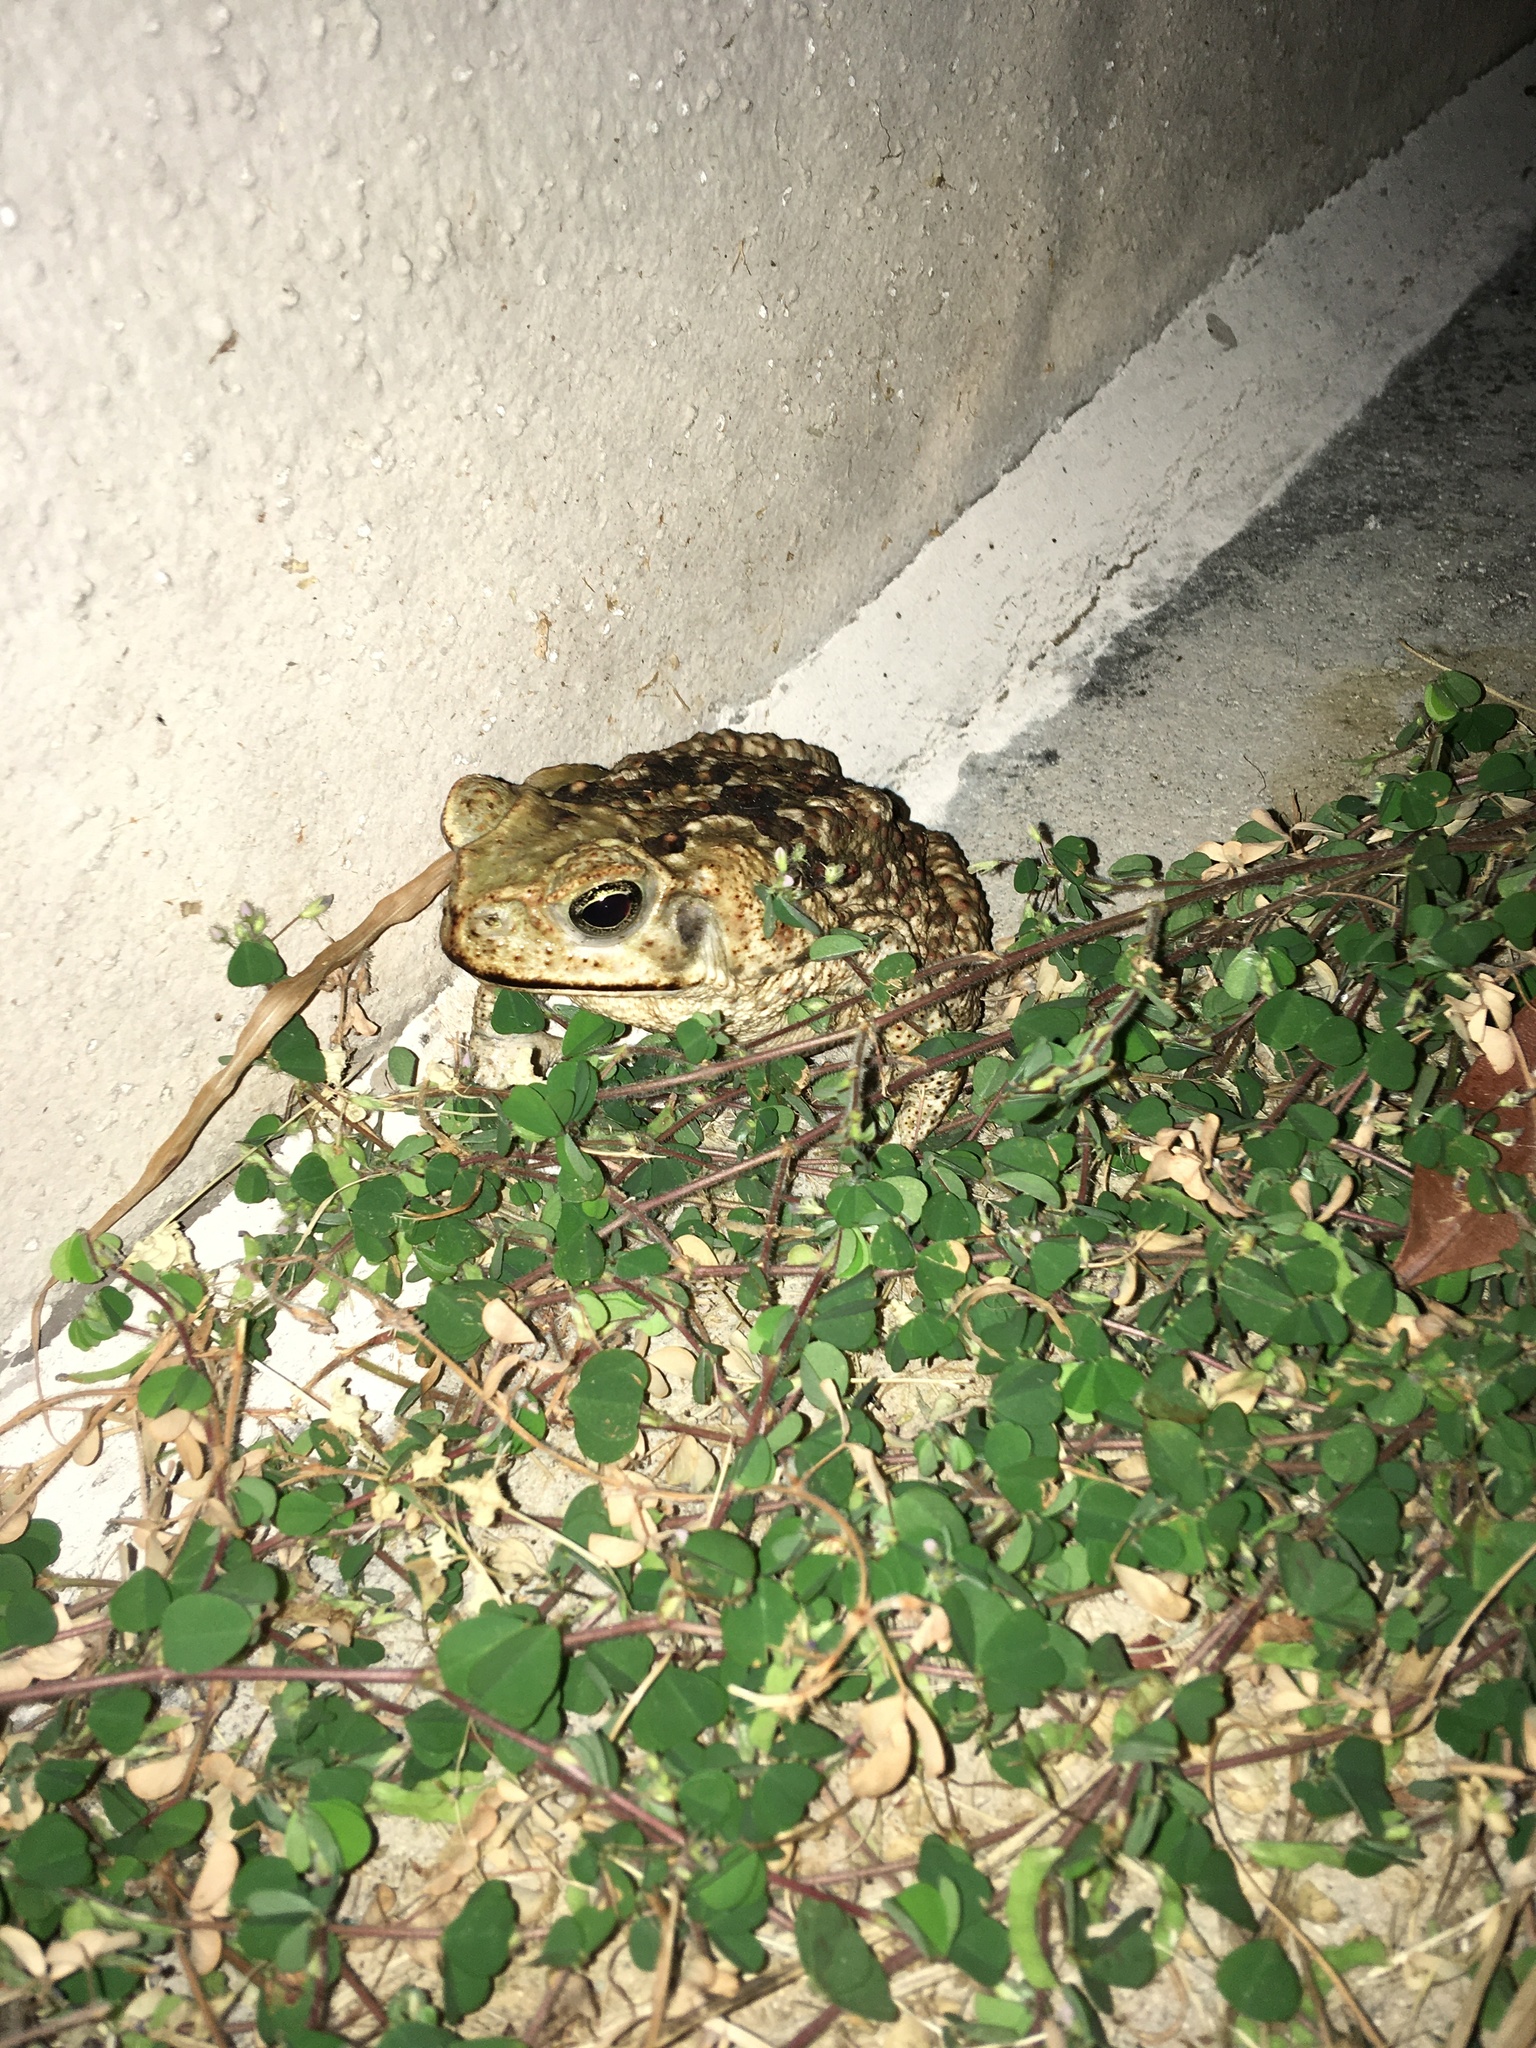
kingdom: Animalia
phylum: Chordata
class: Amphibia
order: Anura
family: Bufonidae
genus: Rhinella
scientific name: Rhinella marina
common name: Cane toad
